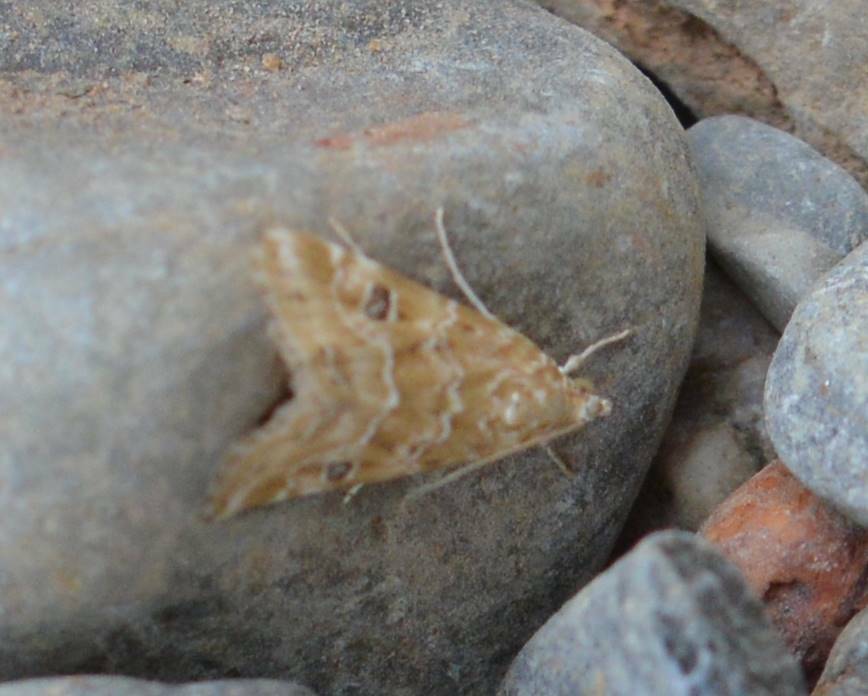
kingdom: Animalia
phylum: Arthropoda
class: Insecta
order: Lepidoptera
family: Crambidae
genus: Hellula
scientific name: Hellula undalis
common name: Cabbage webworm
